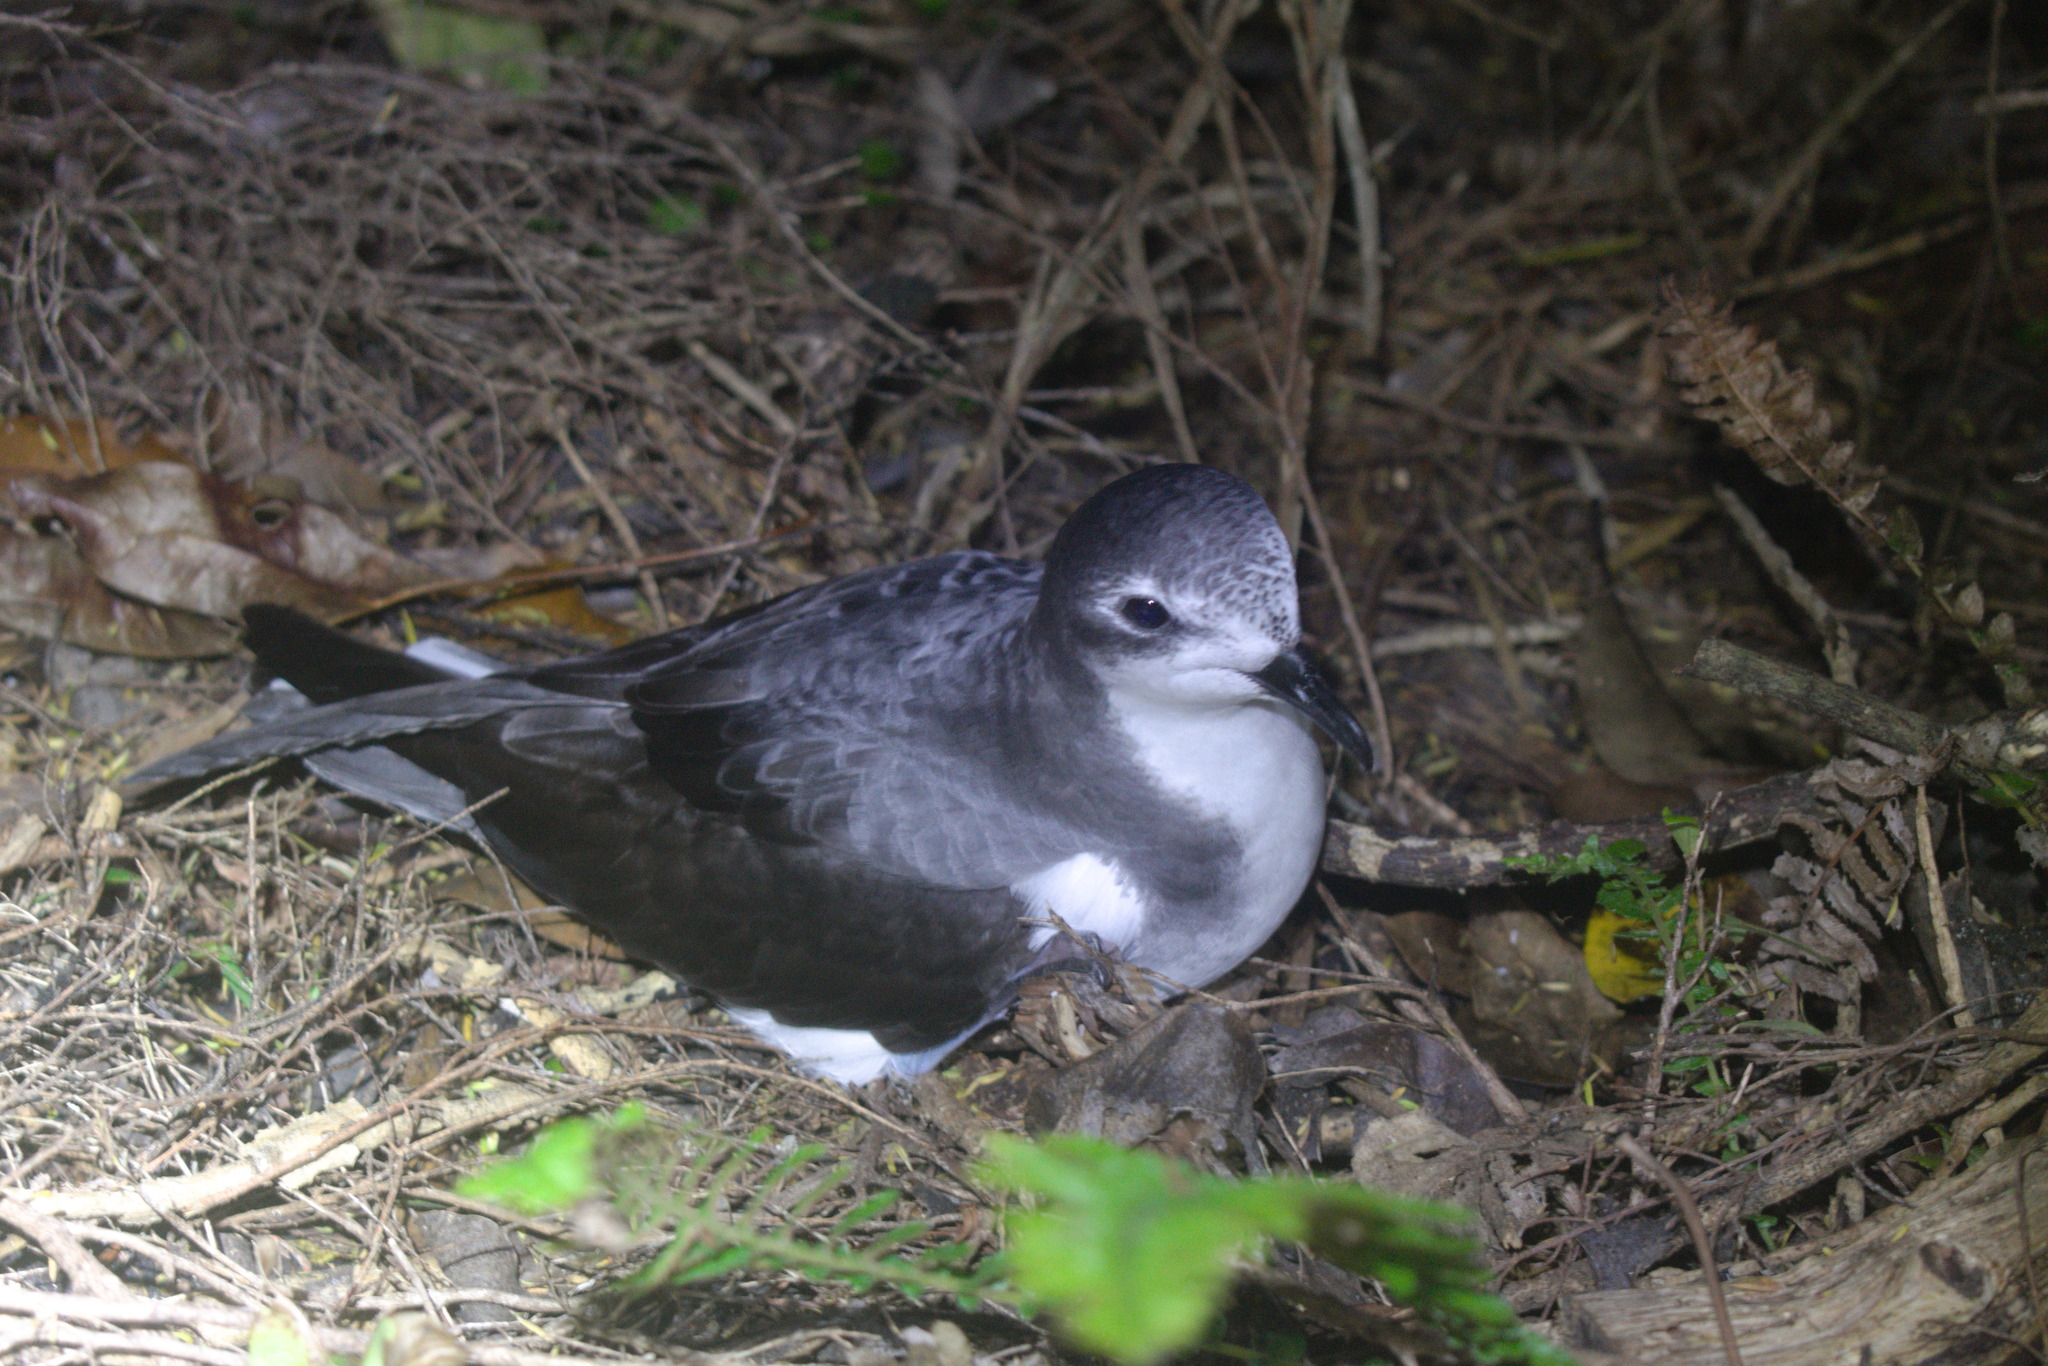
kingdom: Animalia
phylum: Chordata
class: Aves
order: Procellariiformes
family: Procellariidae
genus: Pterodroma
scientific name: Pterodroma pycrofti
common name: Pycroft's petrel
